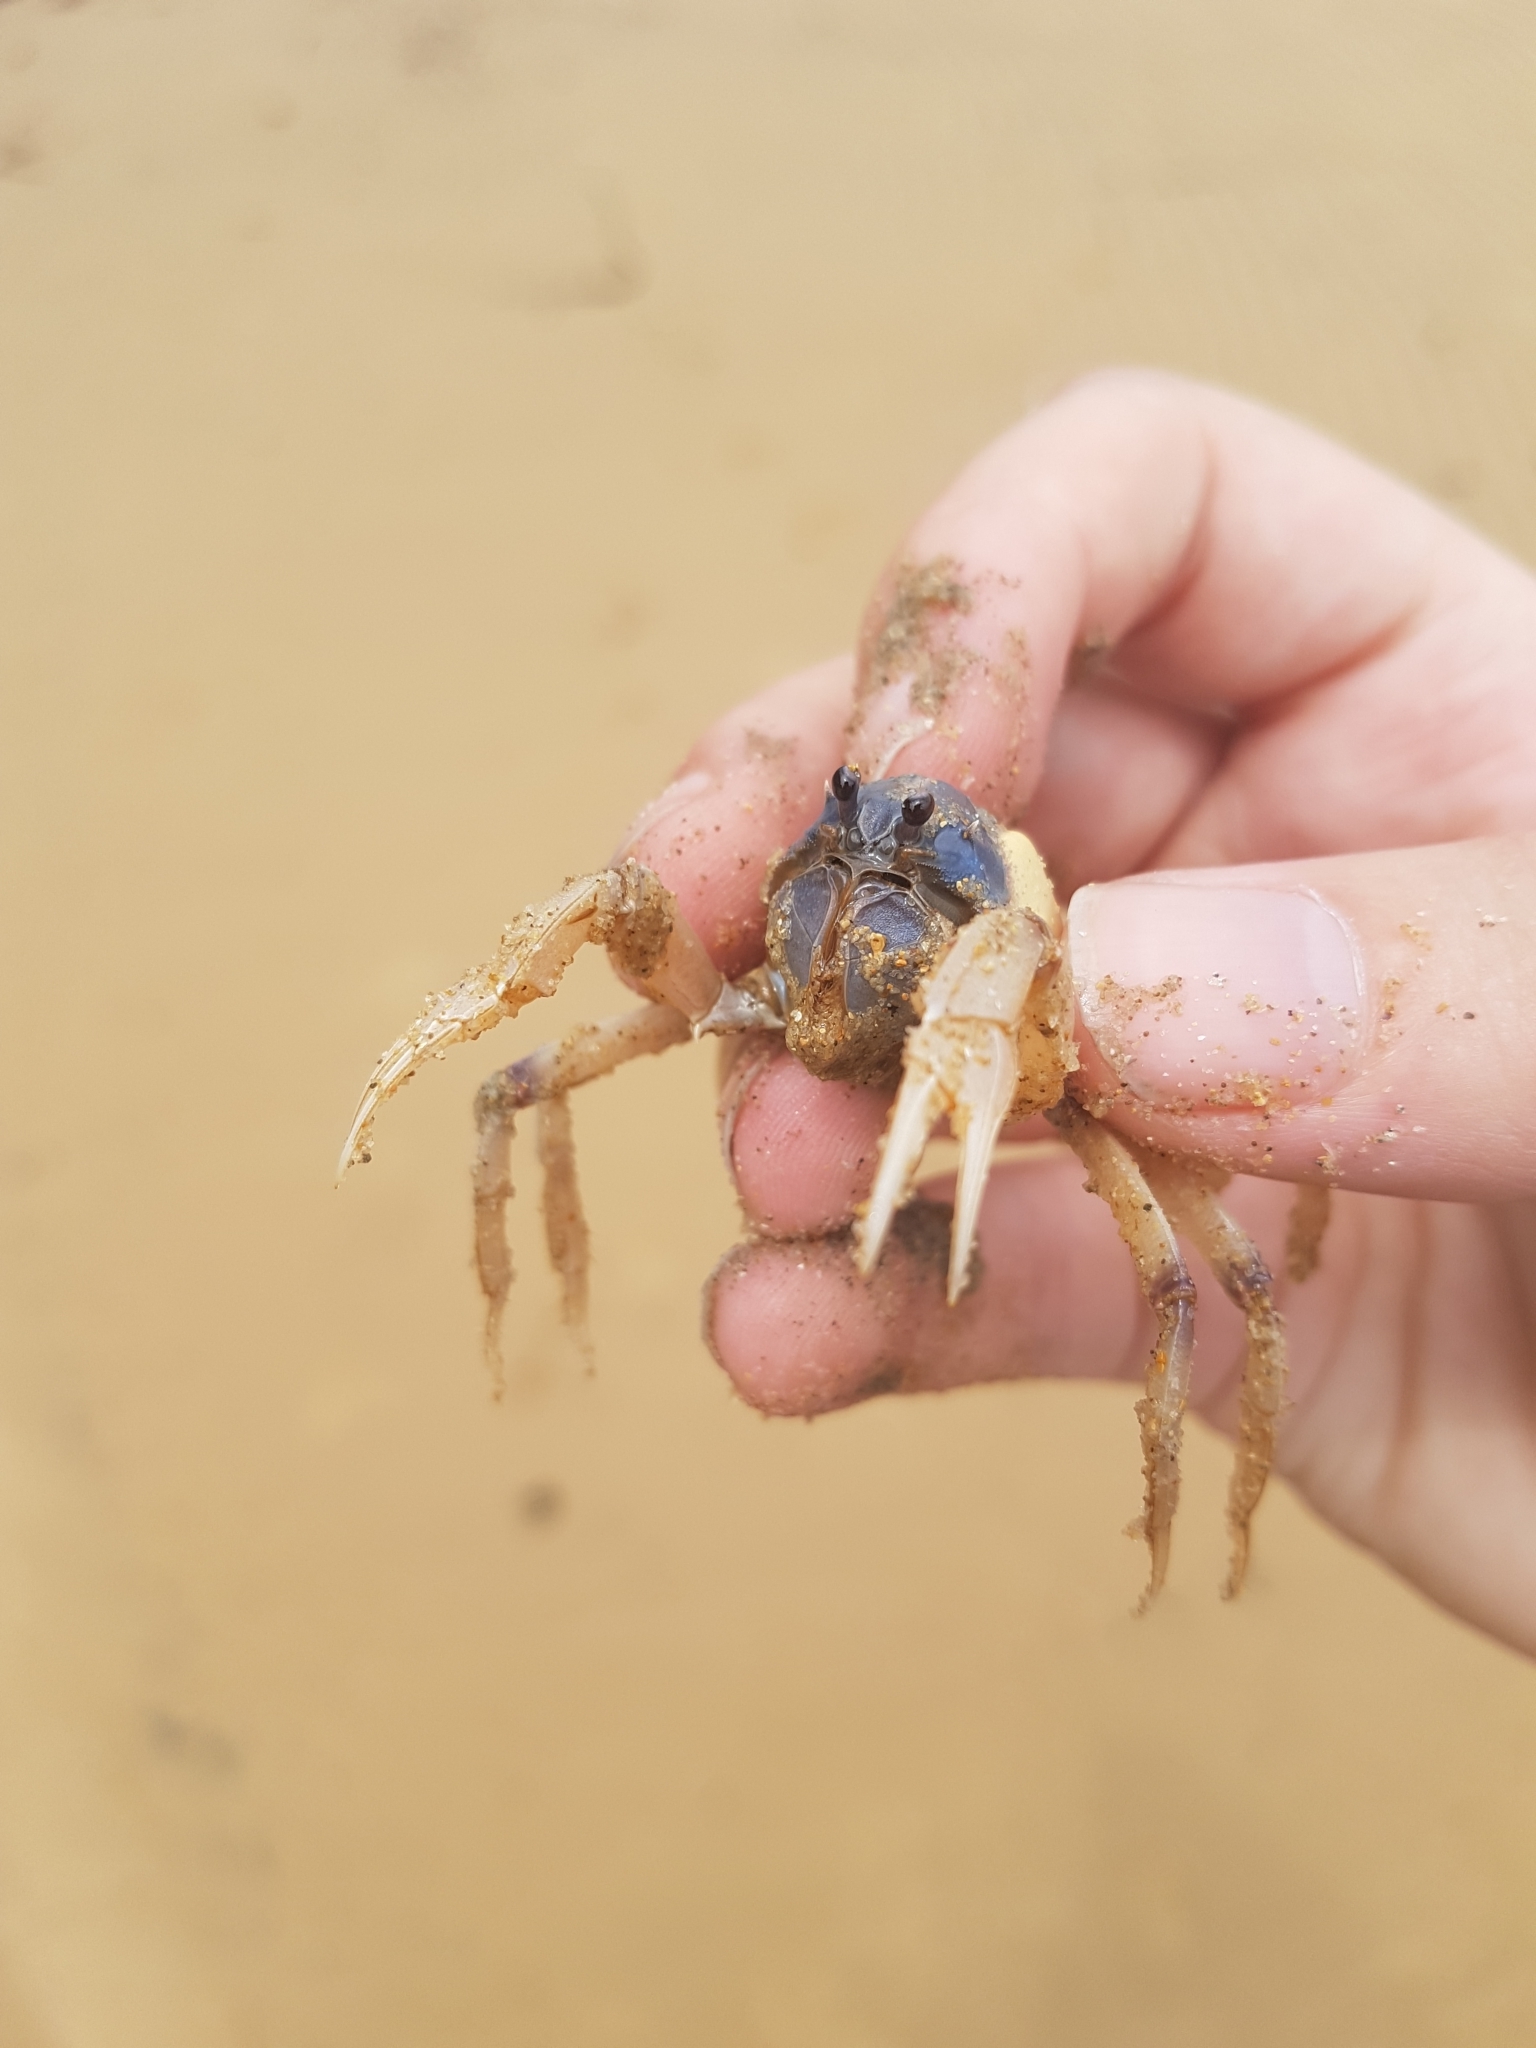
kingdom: Animalia
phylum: Arthropoda
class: Malacostraca
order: Decapoda
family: Mictyridae
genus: Mictyris
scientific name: Mictyris longicarpus
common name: Light-blue soldier crab
